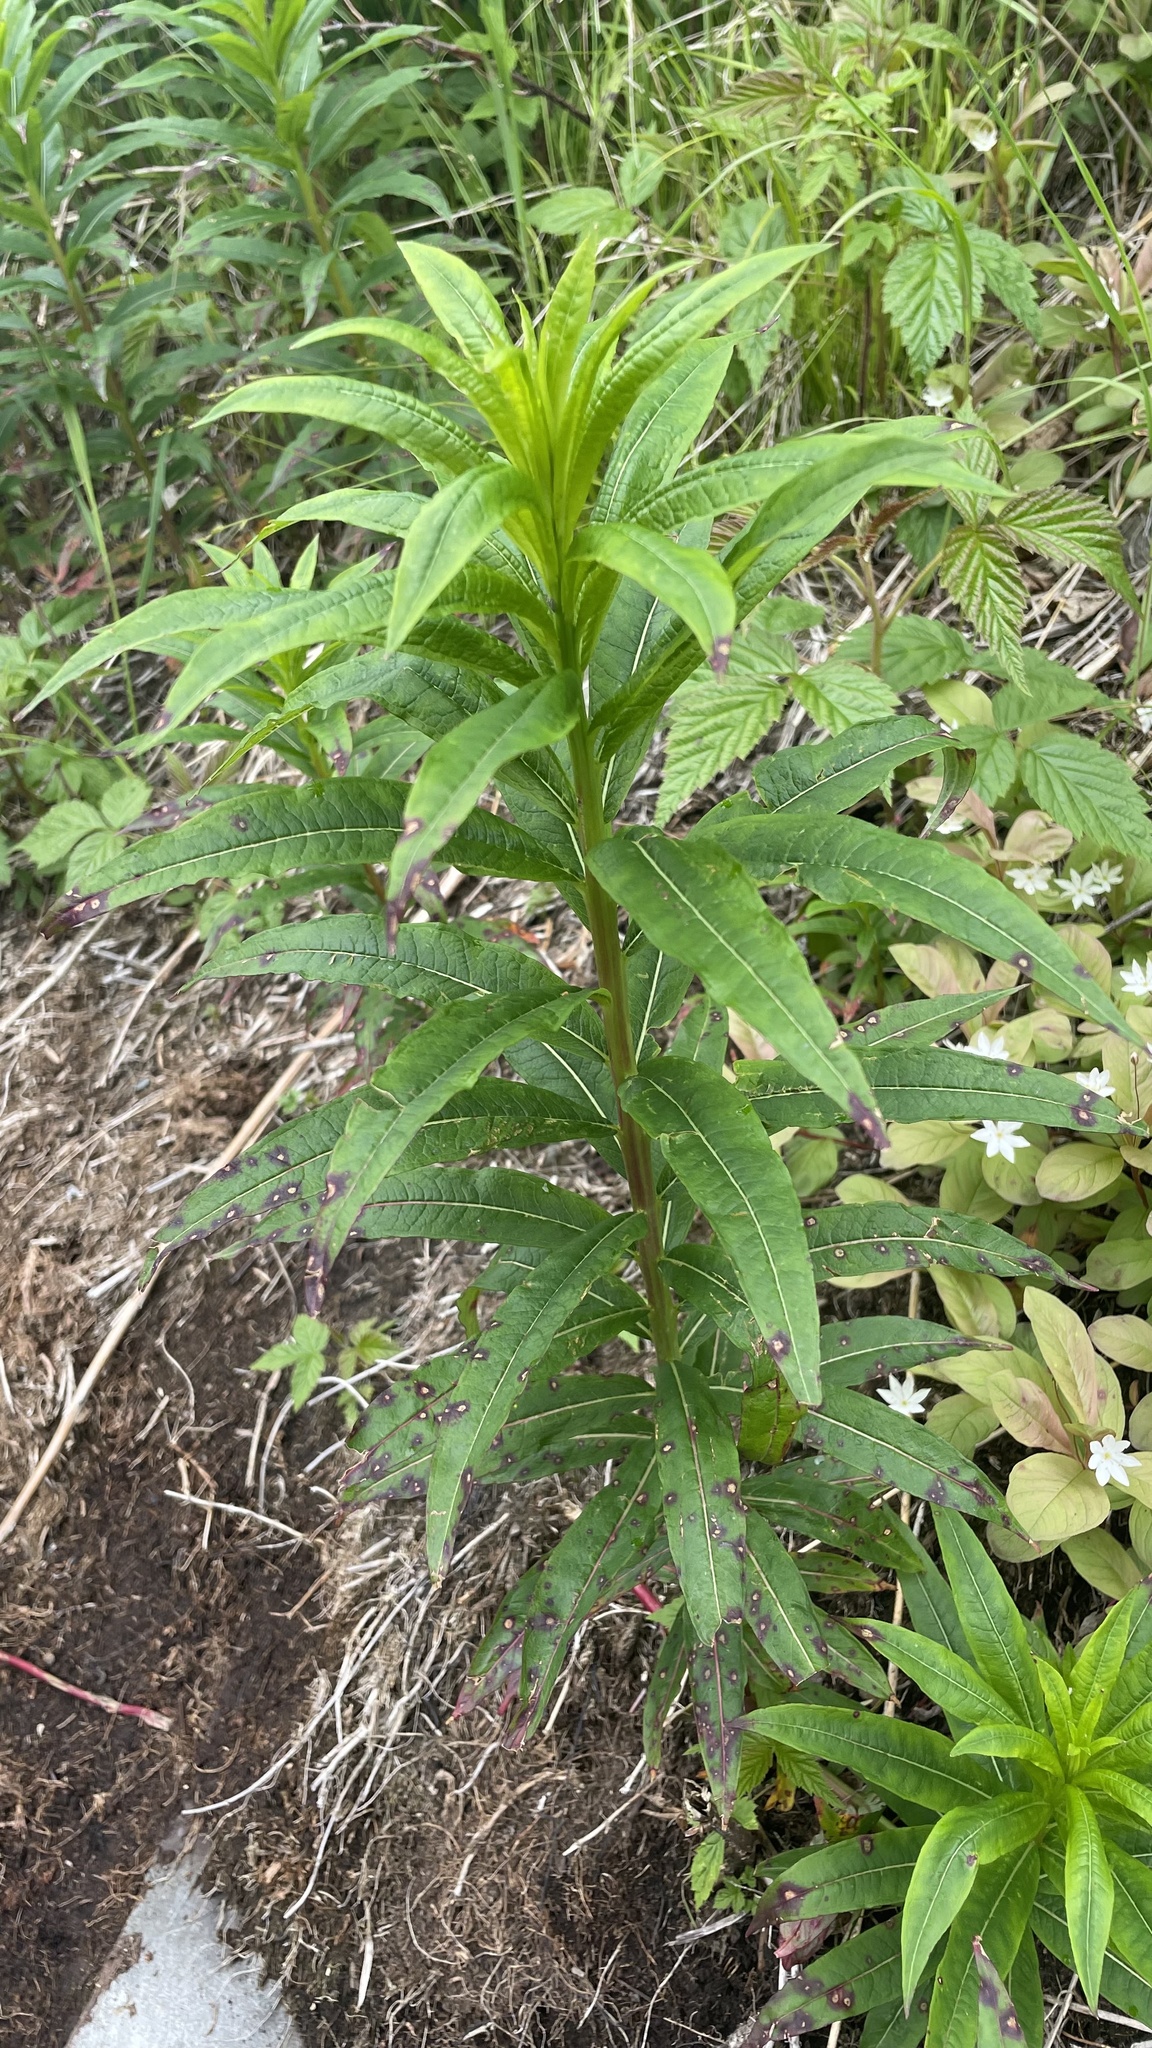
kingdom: Plantae
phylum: Tracheophyta
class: Magnoliopsida
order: Myrtales
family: Onagraceae
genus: Chamaenerion
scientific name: Chamaenerion angustifolium
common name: Fireweed
